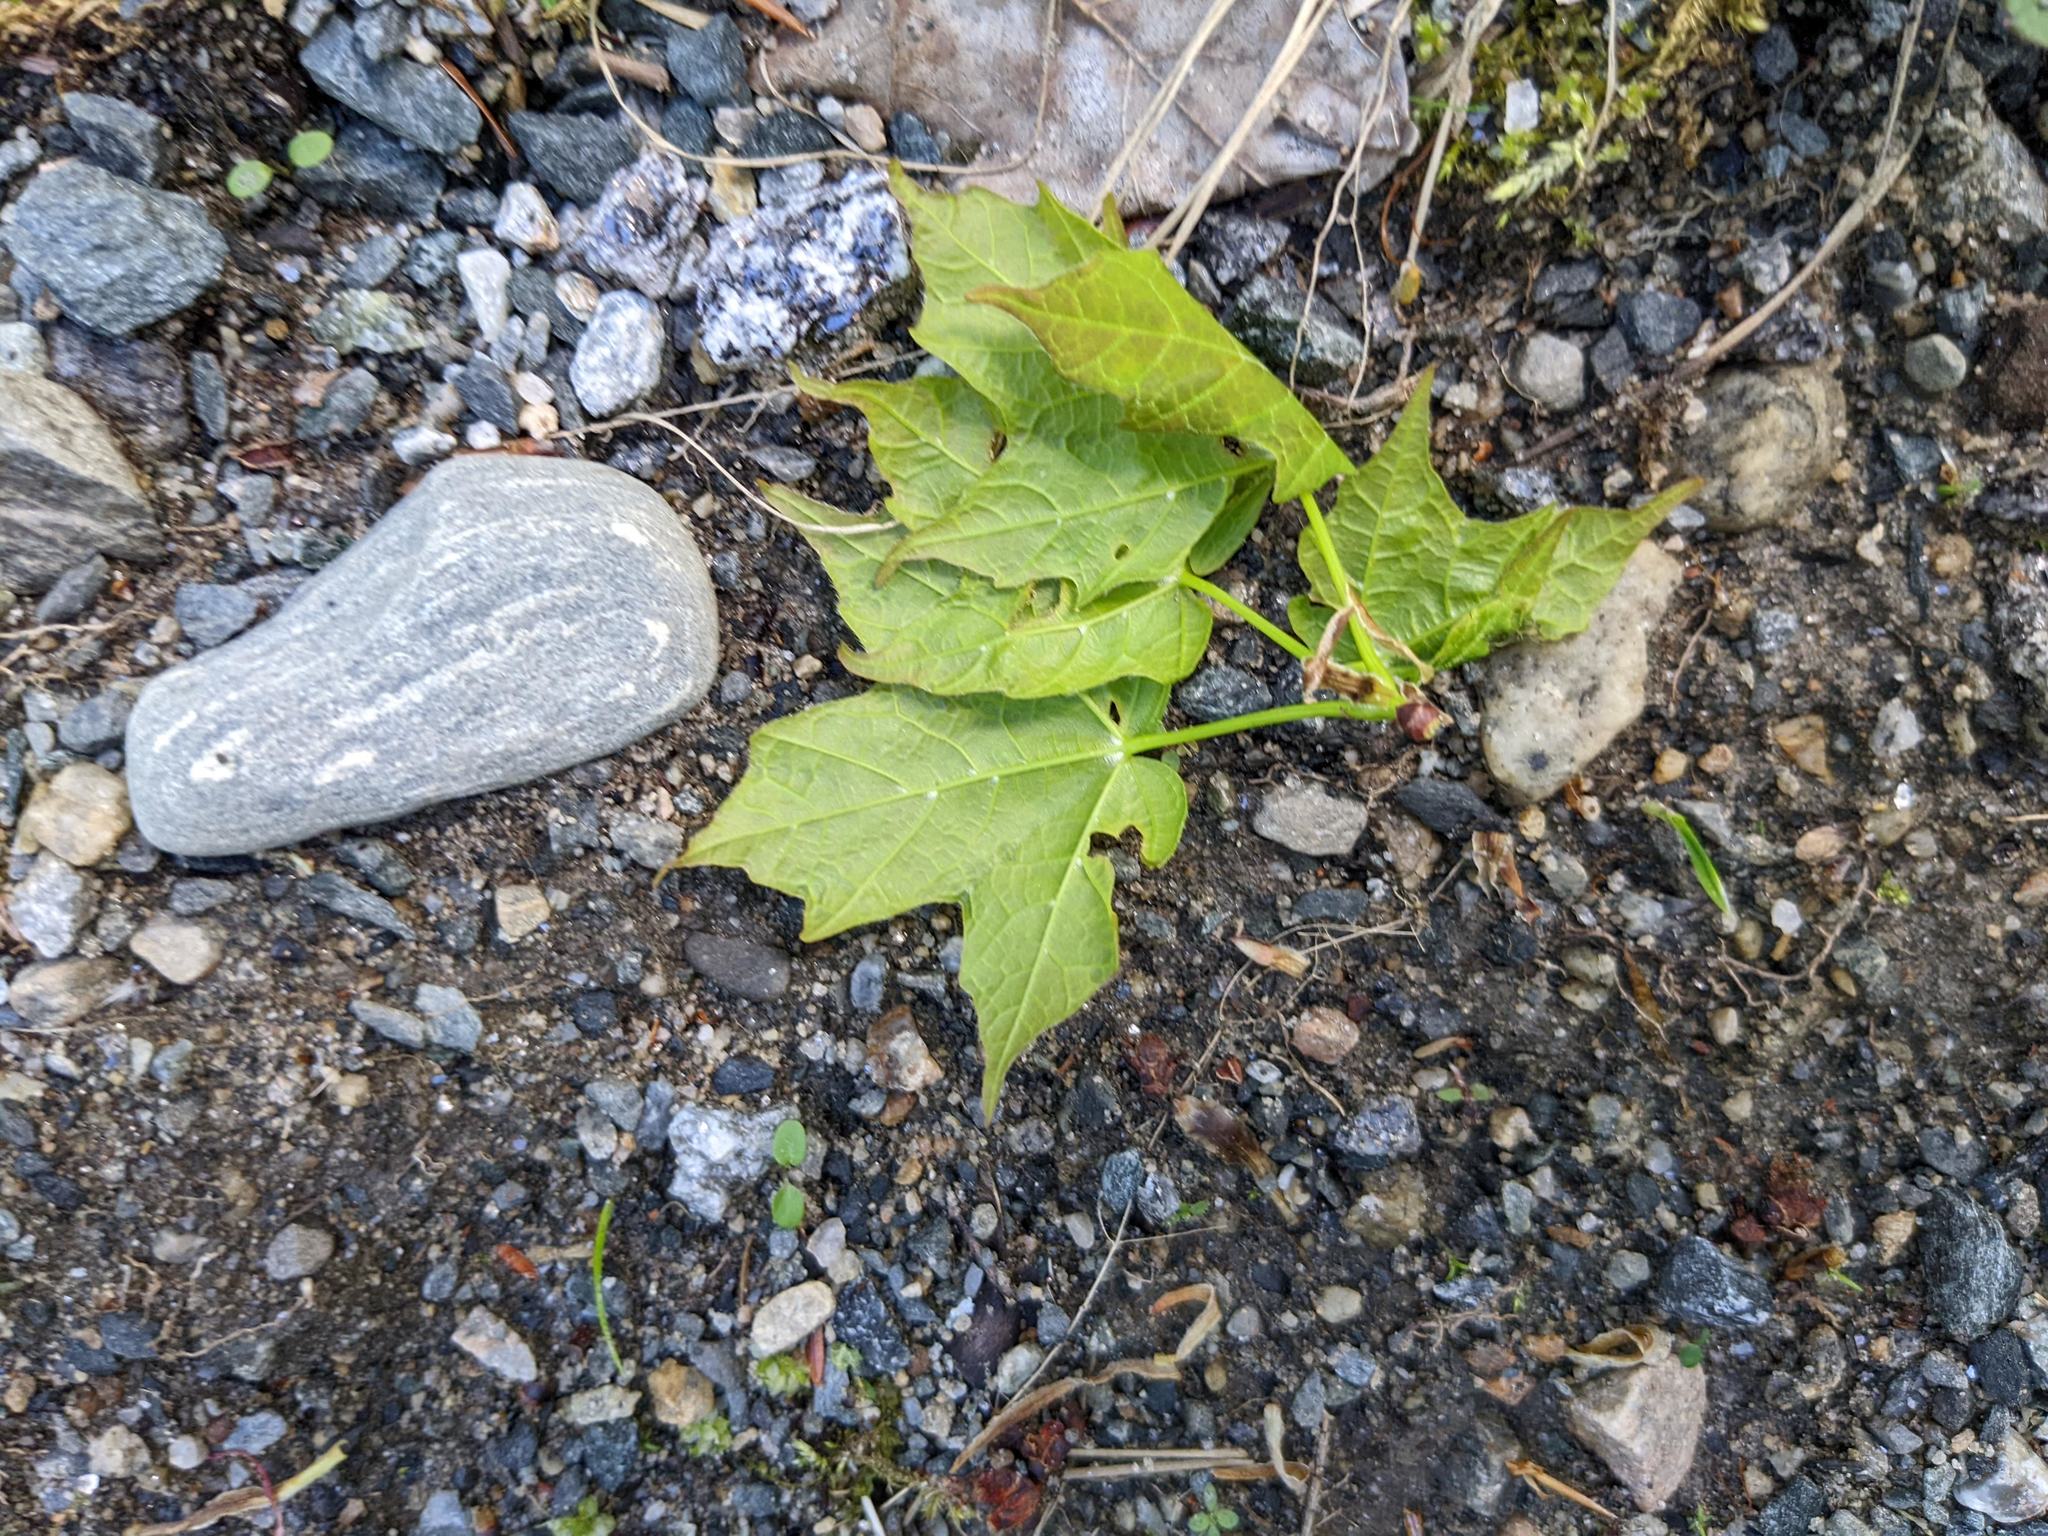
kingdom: Plantae
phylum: Tracheophyta
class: Magnoliopsida
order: Sapindales
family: Sapindaceae
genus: Acer
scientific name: Acer saccharum
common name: Sugar maple
